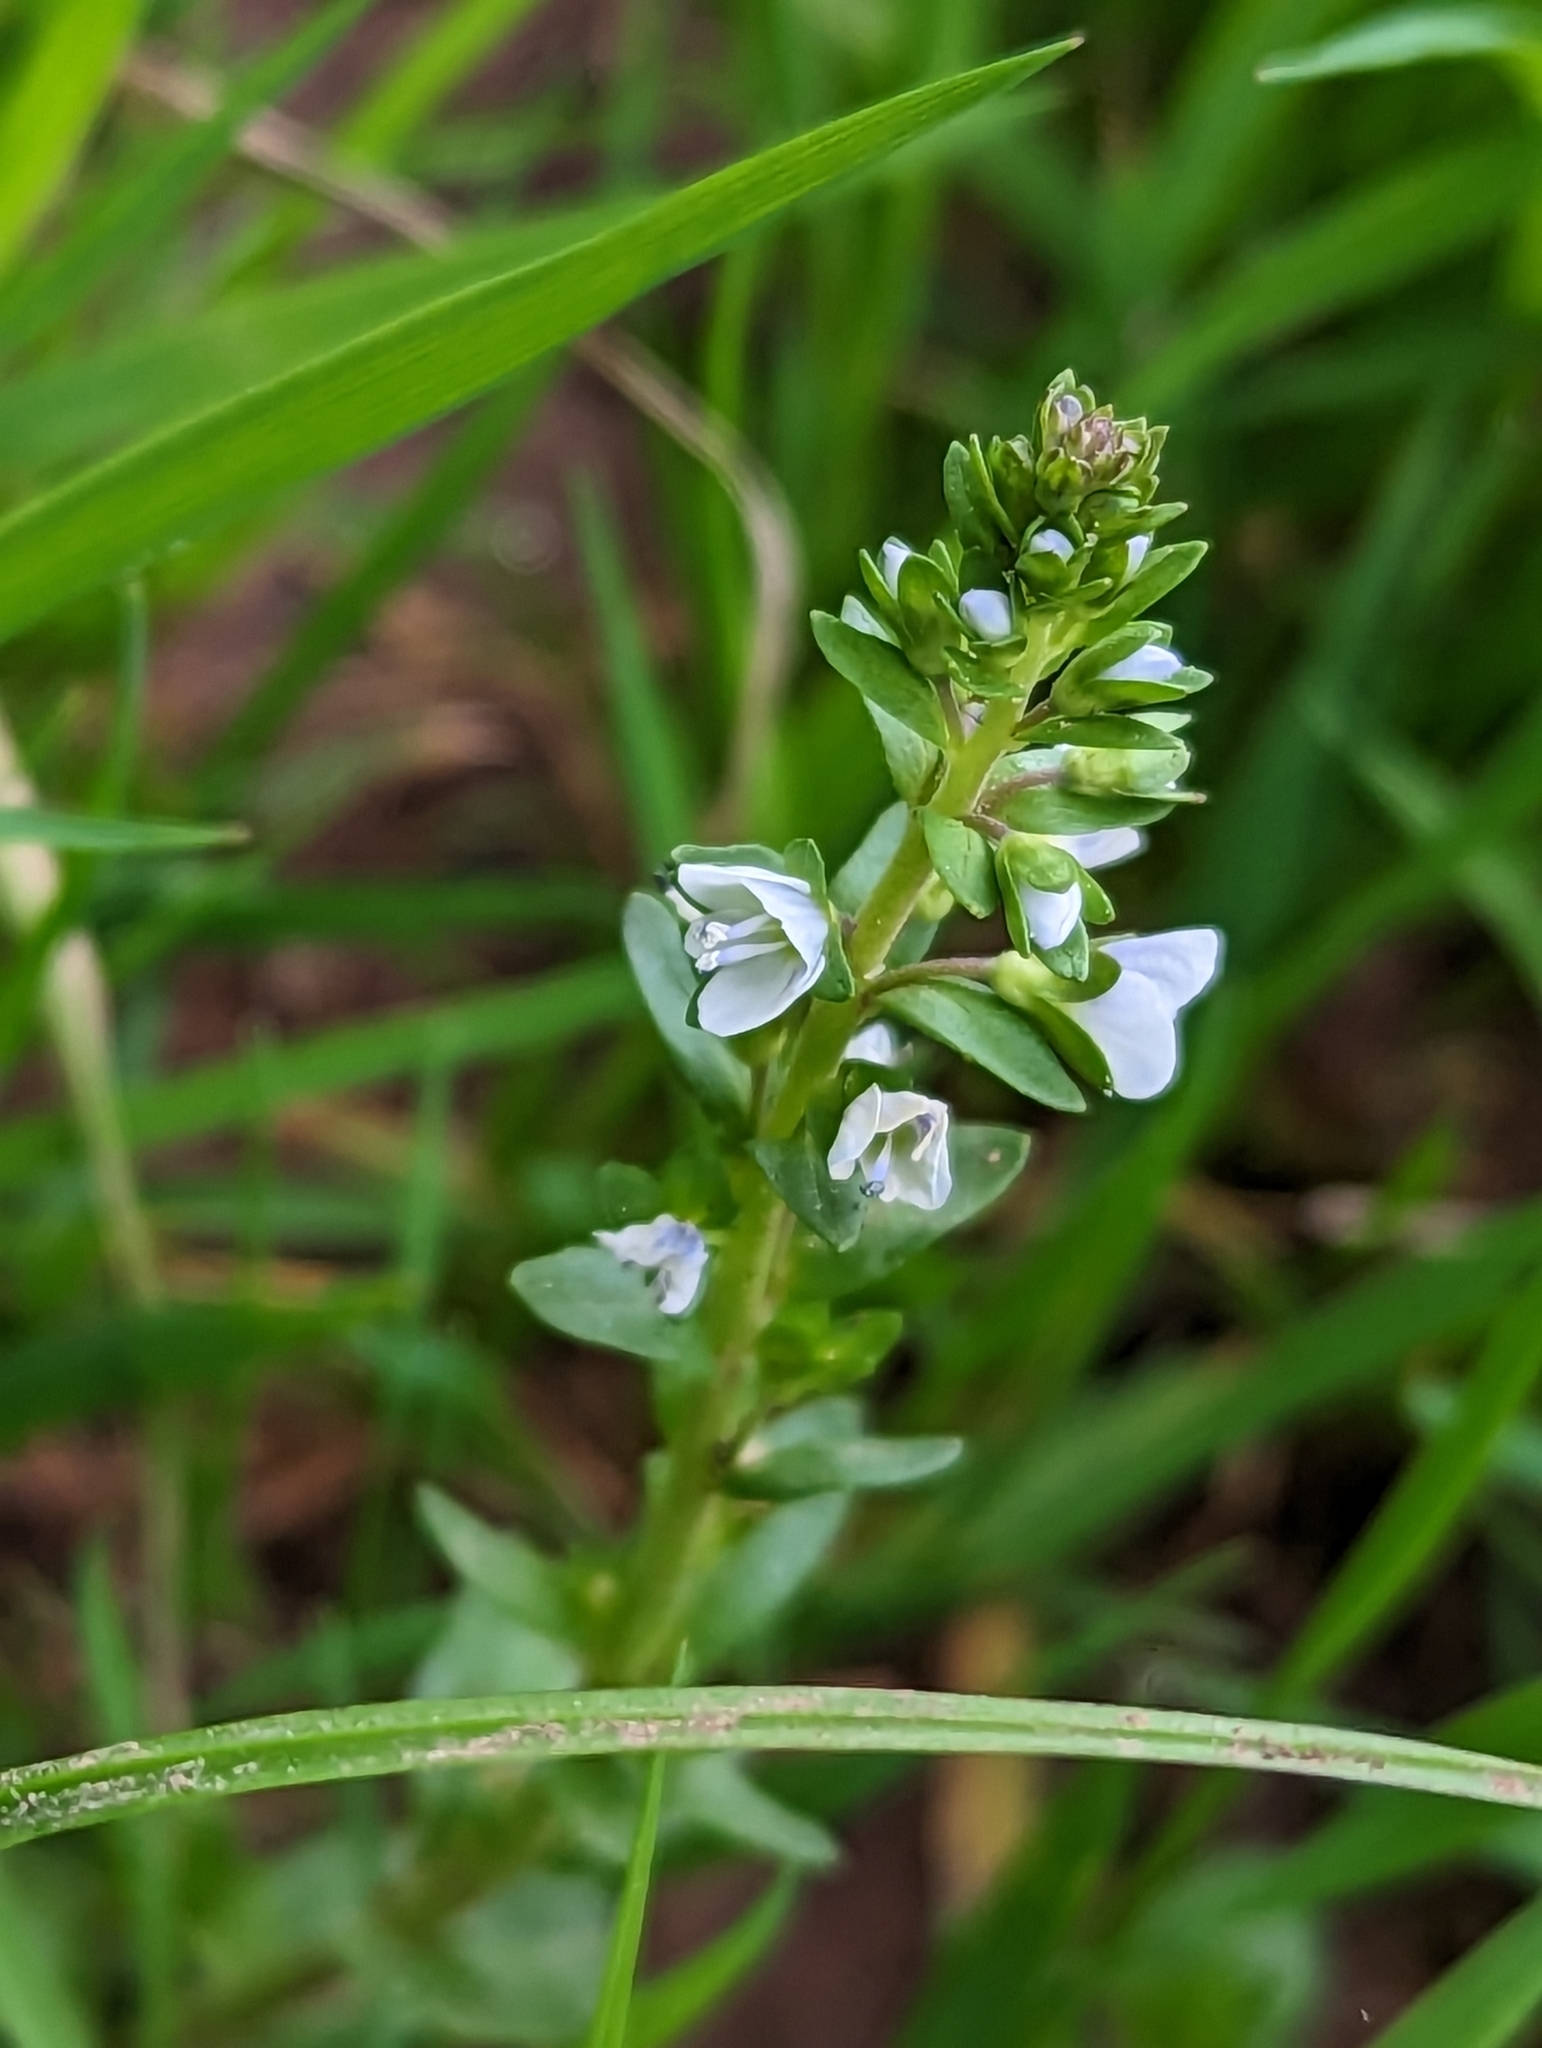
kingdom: Plantae
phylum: Tracheophyta
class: Magnoliopsida
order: Lamiales
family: Plantaginaceae
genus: Veronica
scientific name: Veronica serpyllifolia
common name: Thyme-leaved speedwell
